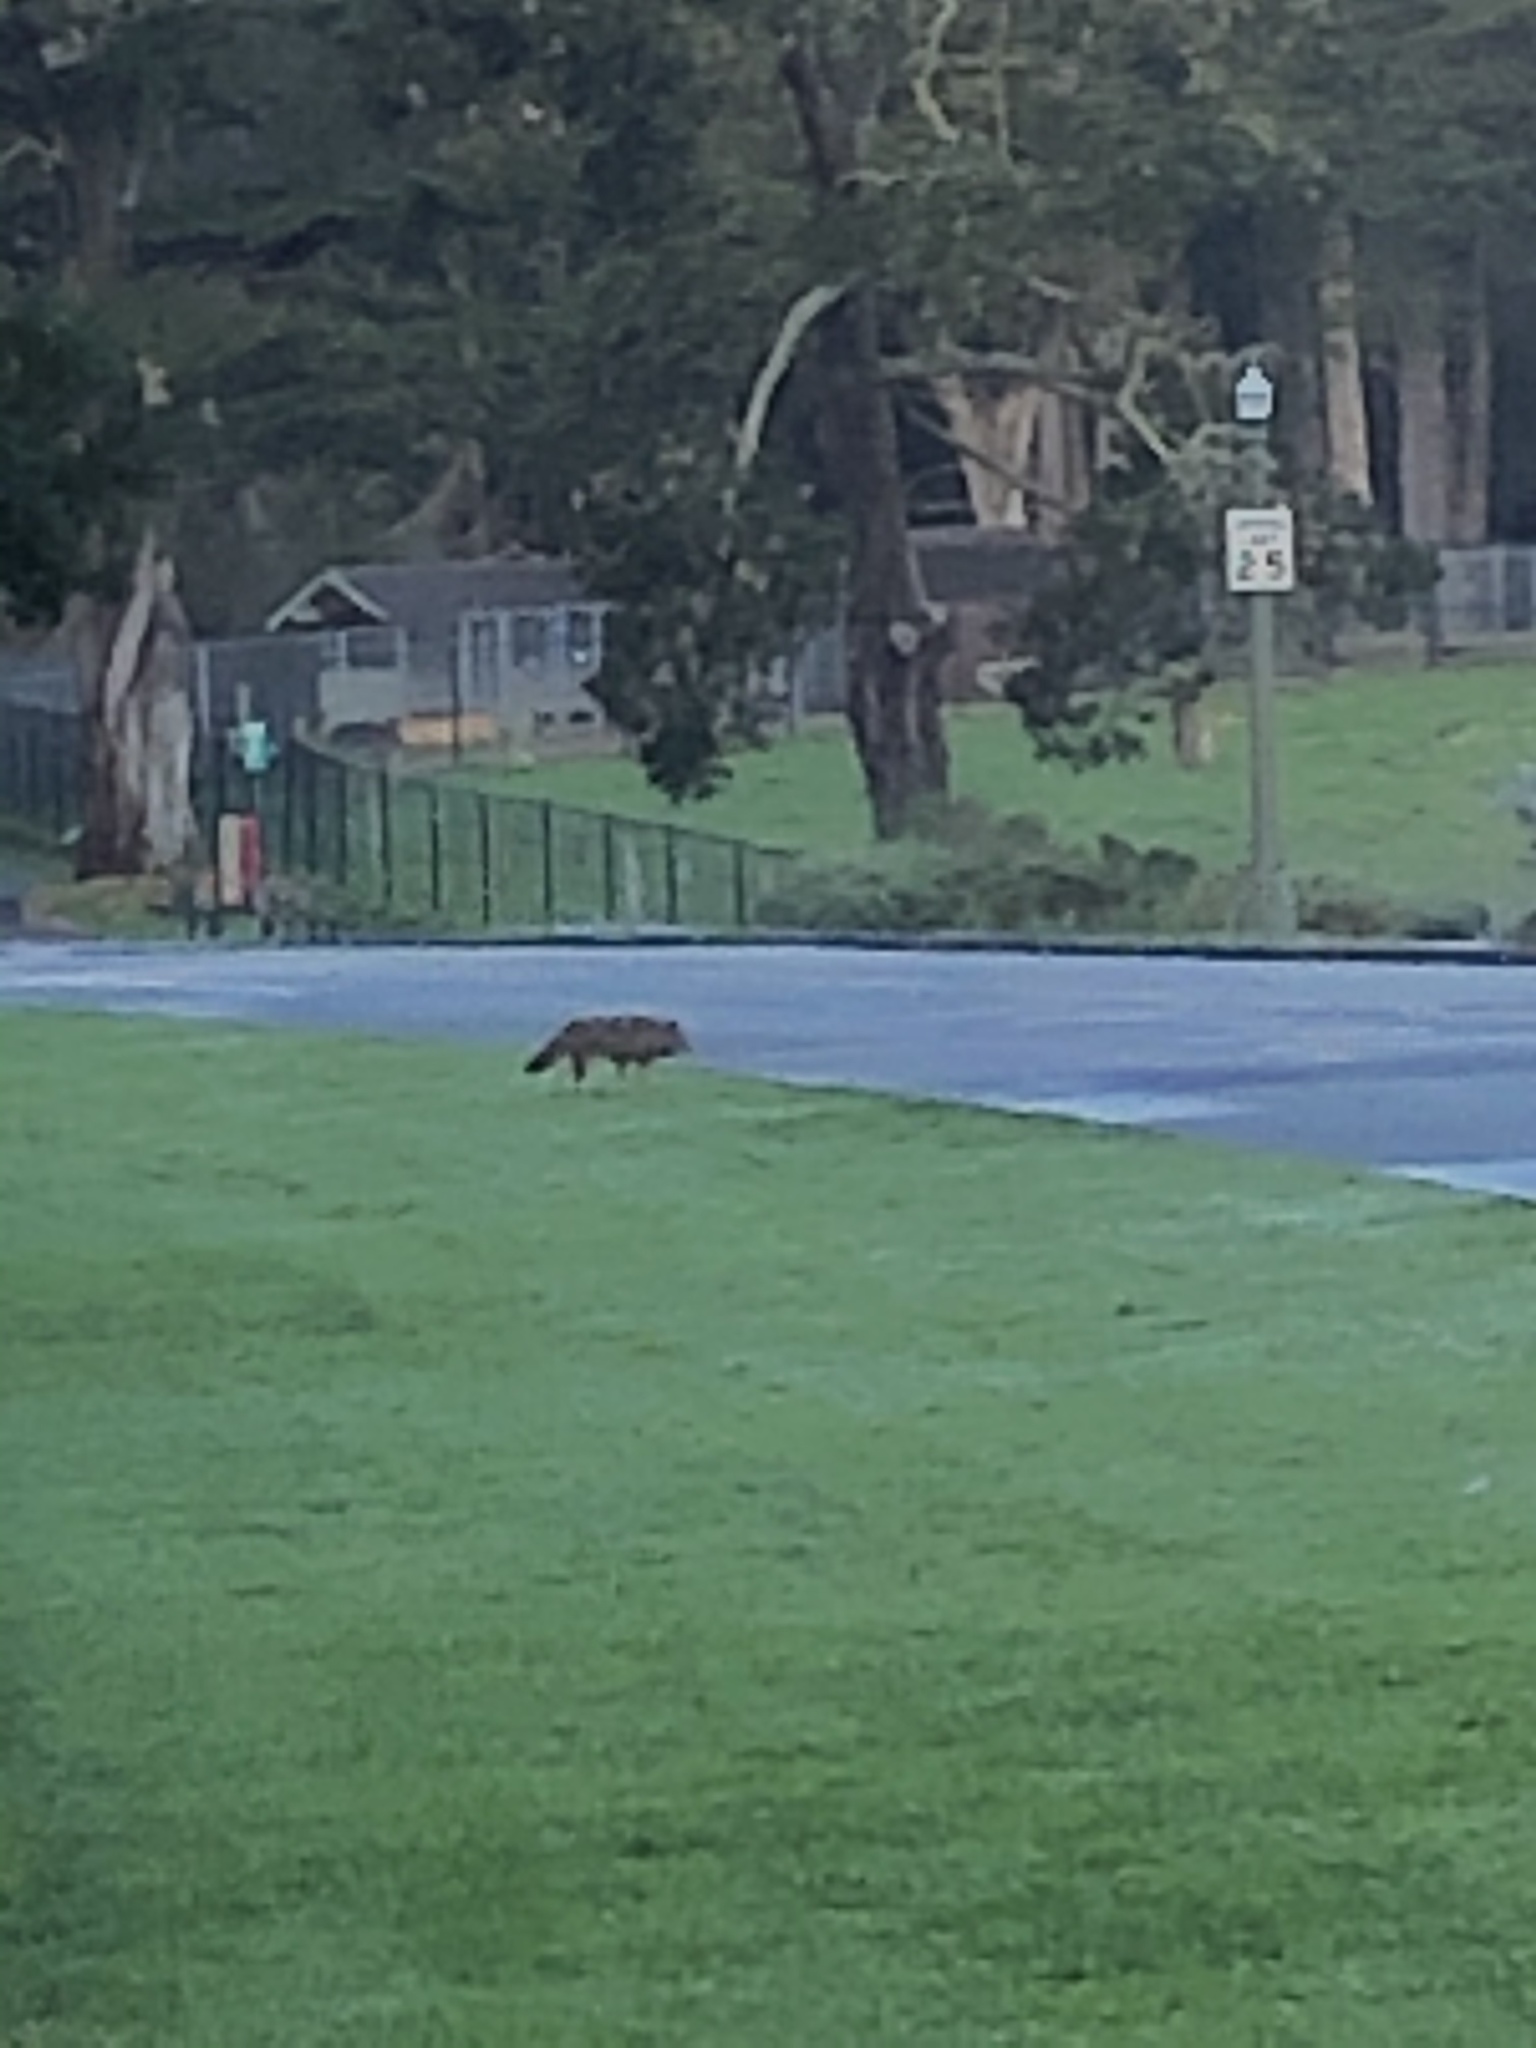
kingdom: Animalia
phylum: Chordata
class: Mammalia
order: Carnivora
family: Canidae
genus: Canis
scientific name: Canis latrans
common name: Coyote
